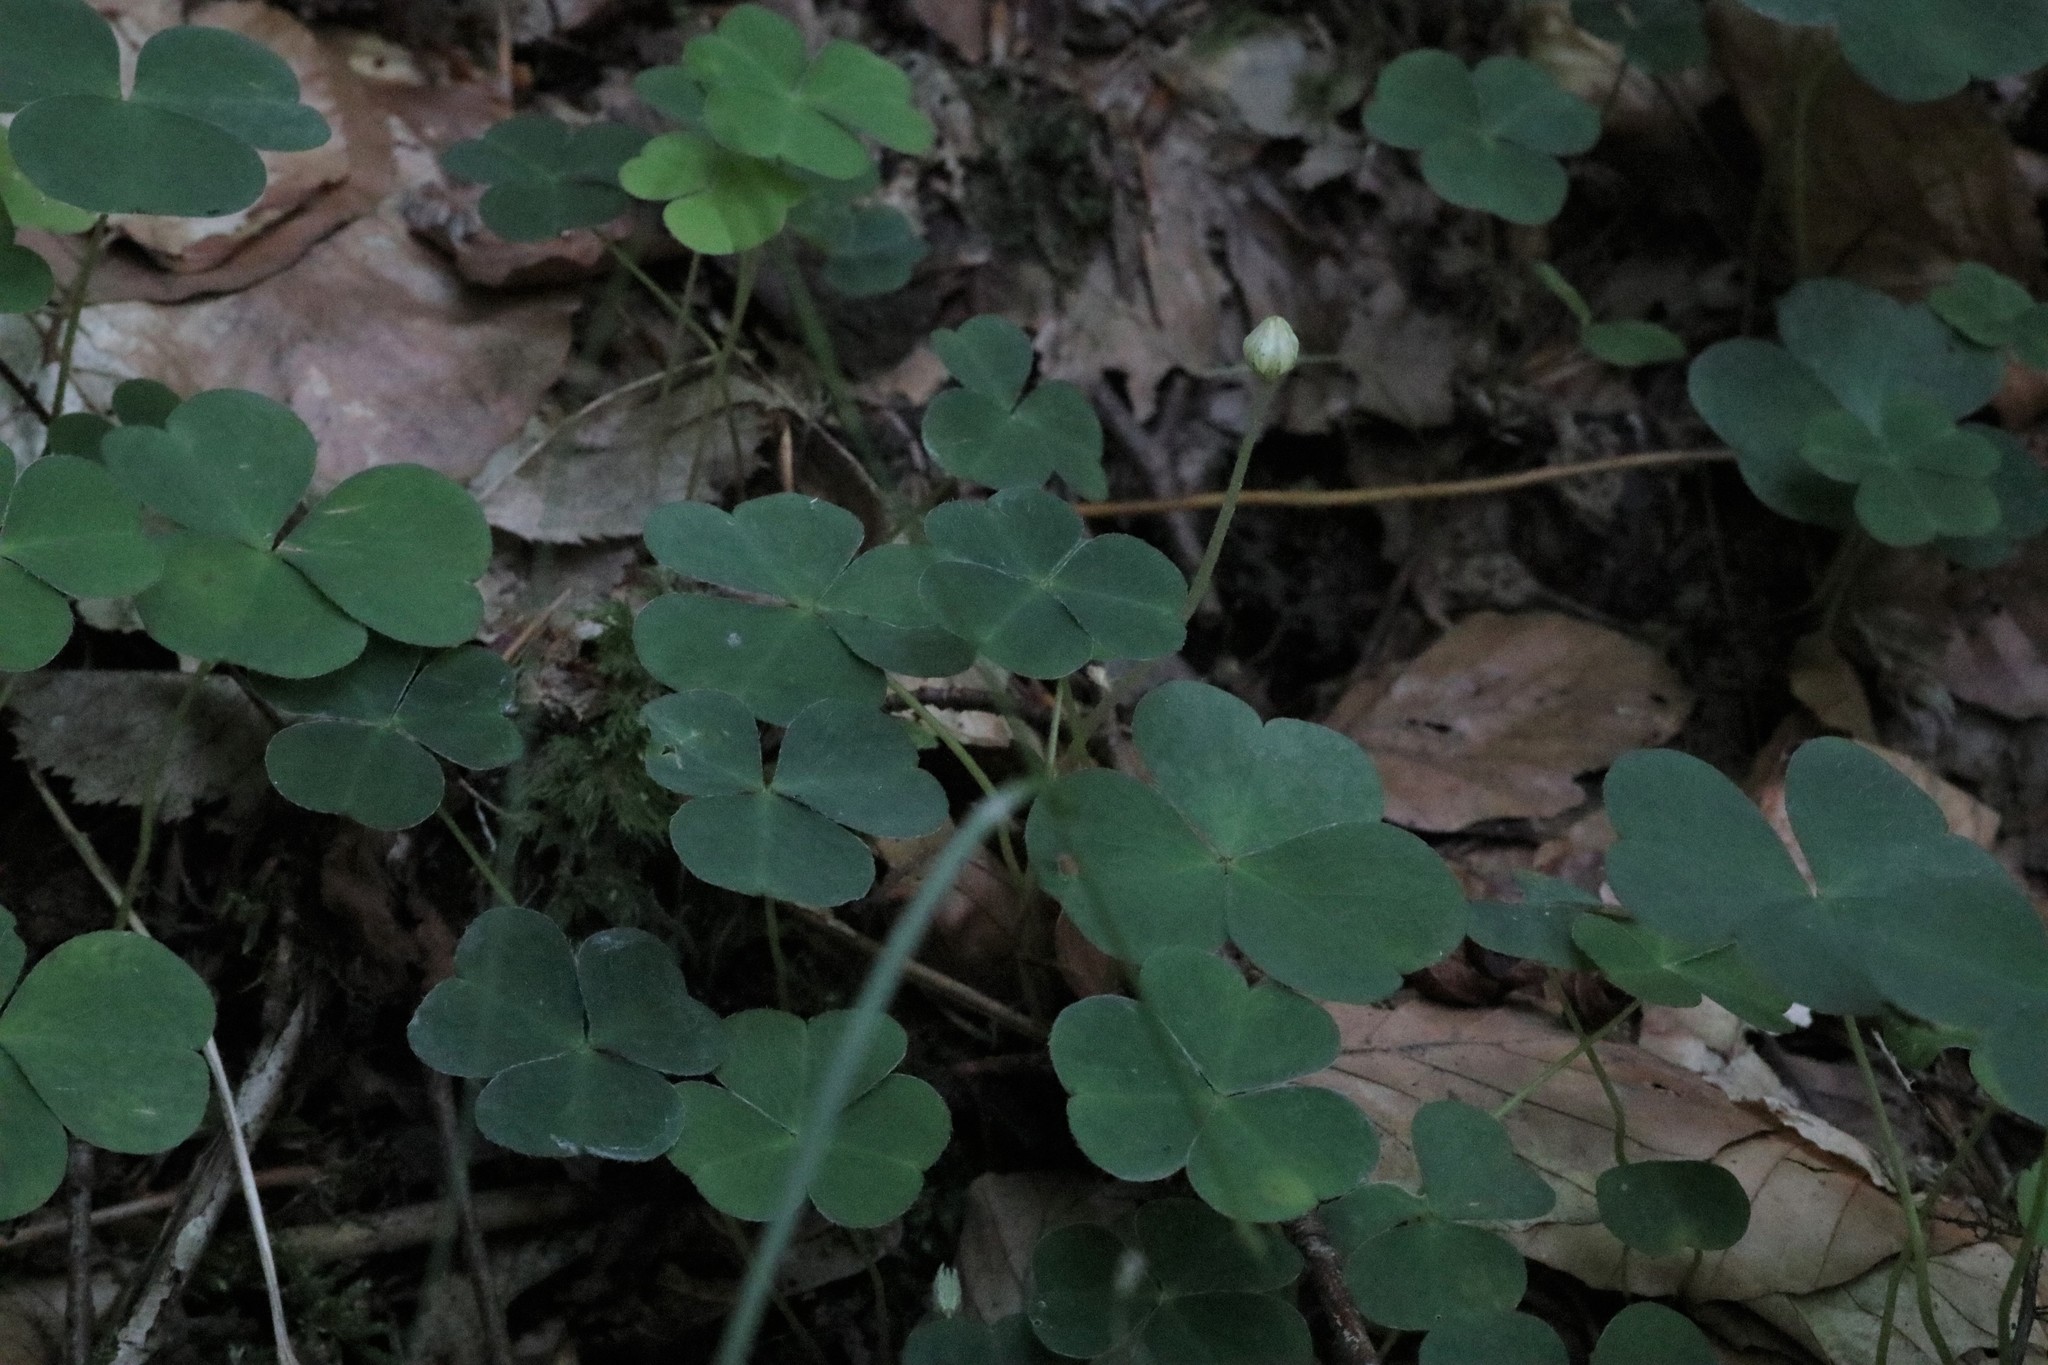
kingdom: Plantae
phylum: Tracheophyta
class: Magnoliopsida
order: Oxalidales
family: Oxalidaceae
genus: Oxalis
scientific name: Oxalis acetosella
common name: Wood-sorrel
